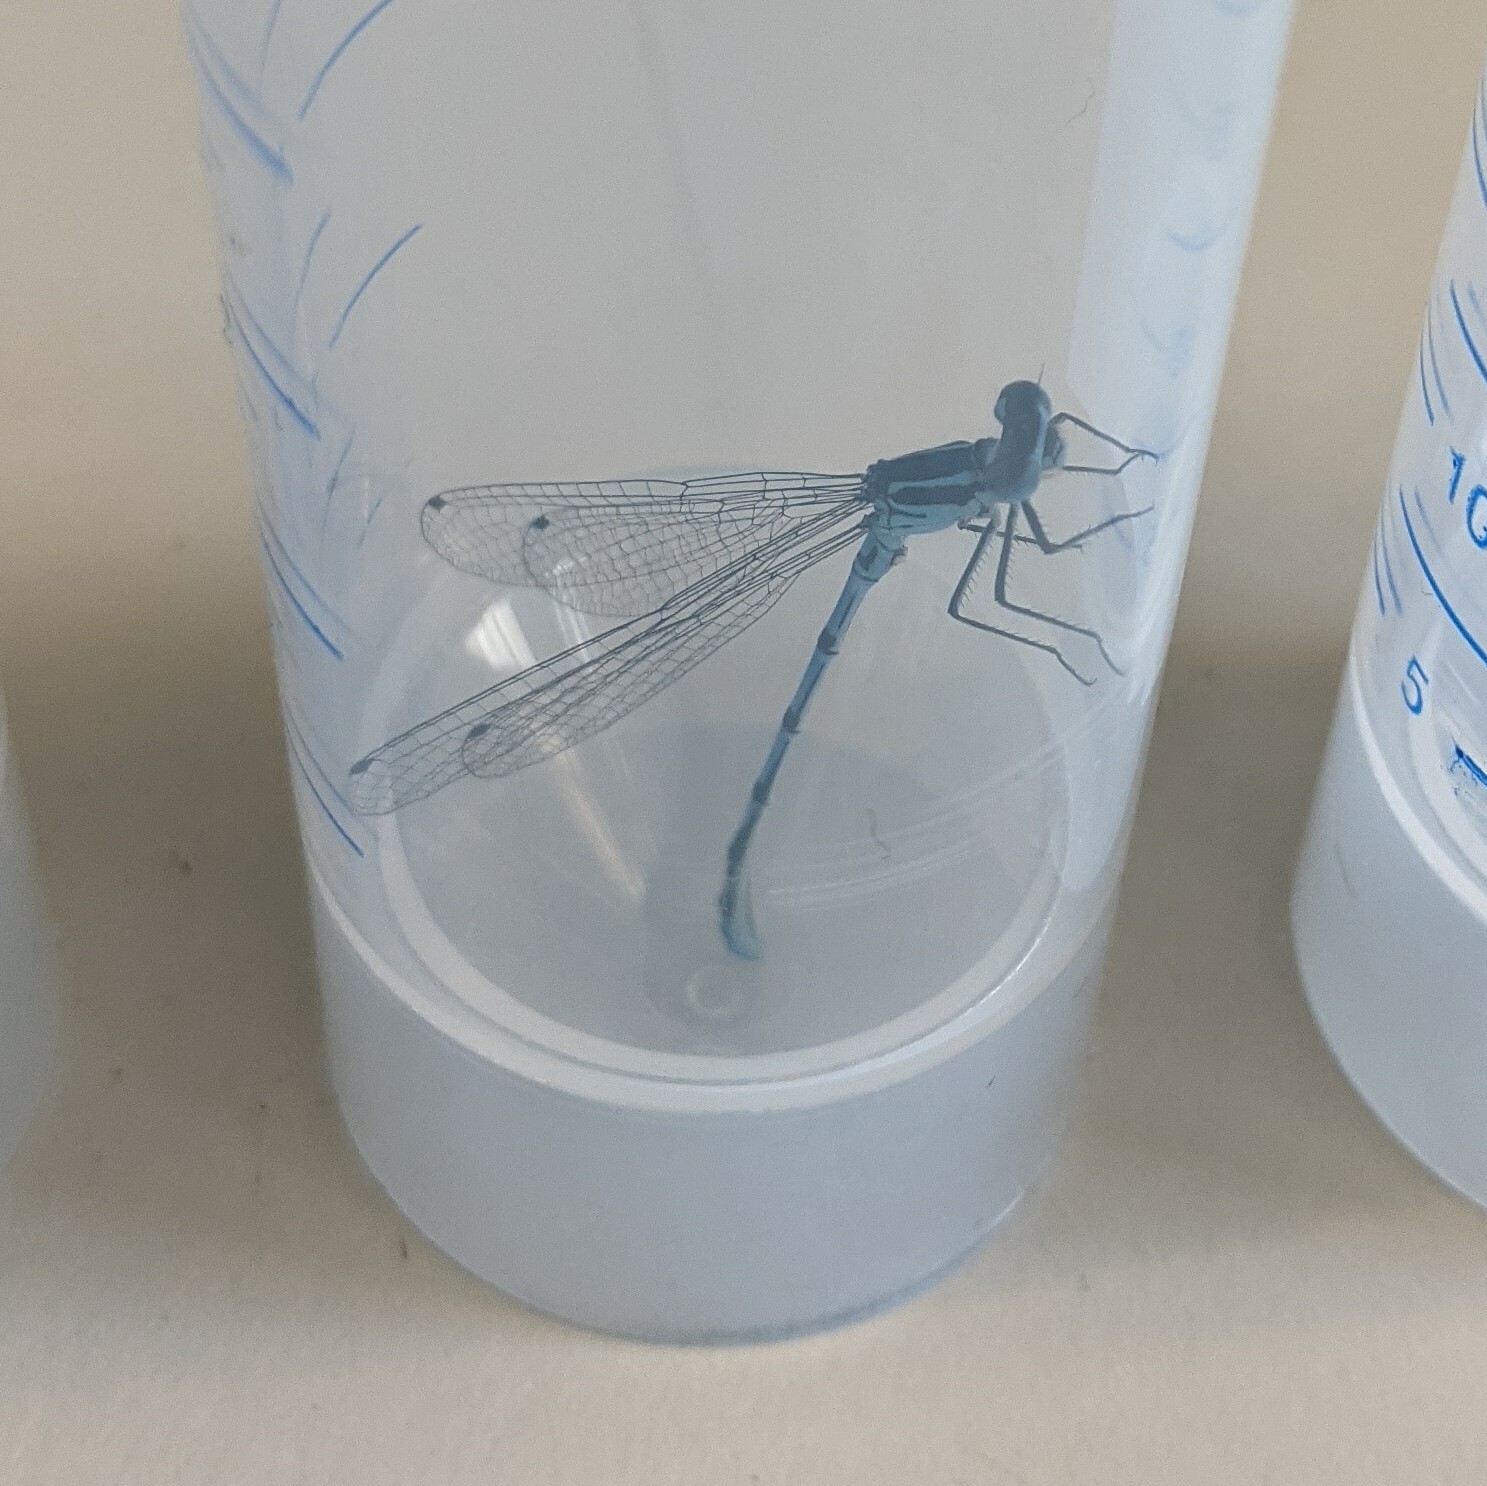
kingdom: Animalia
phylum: Arthropoda
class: Insecta
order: Odonata
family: Coenagrionidae
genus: Coenagrion
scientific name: Coenagrion puella
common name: Azure damselfly
